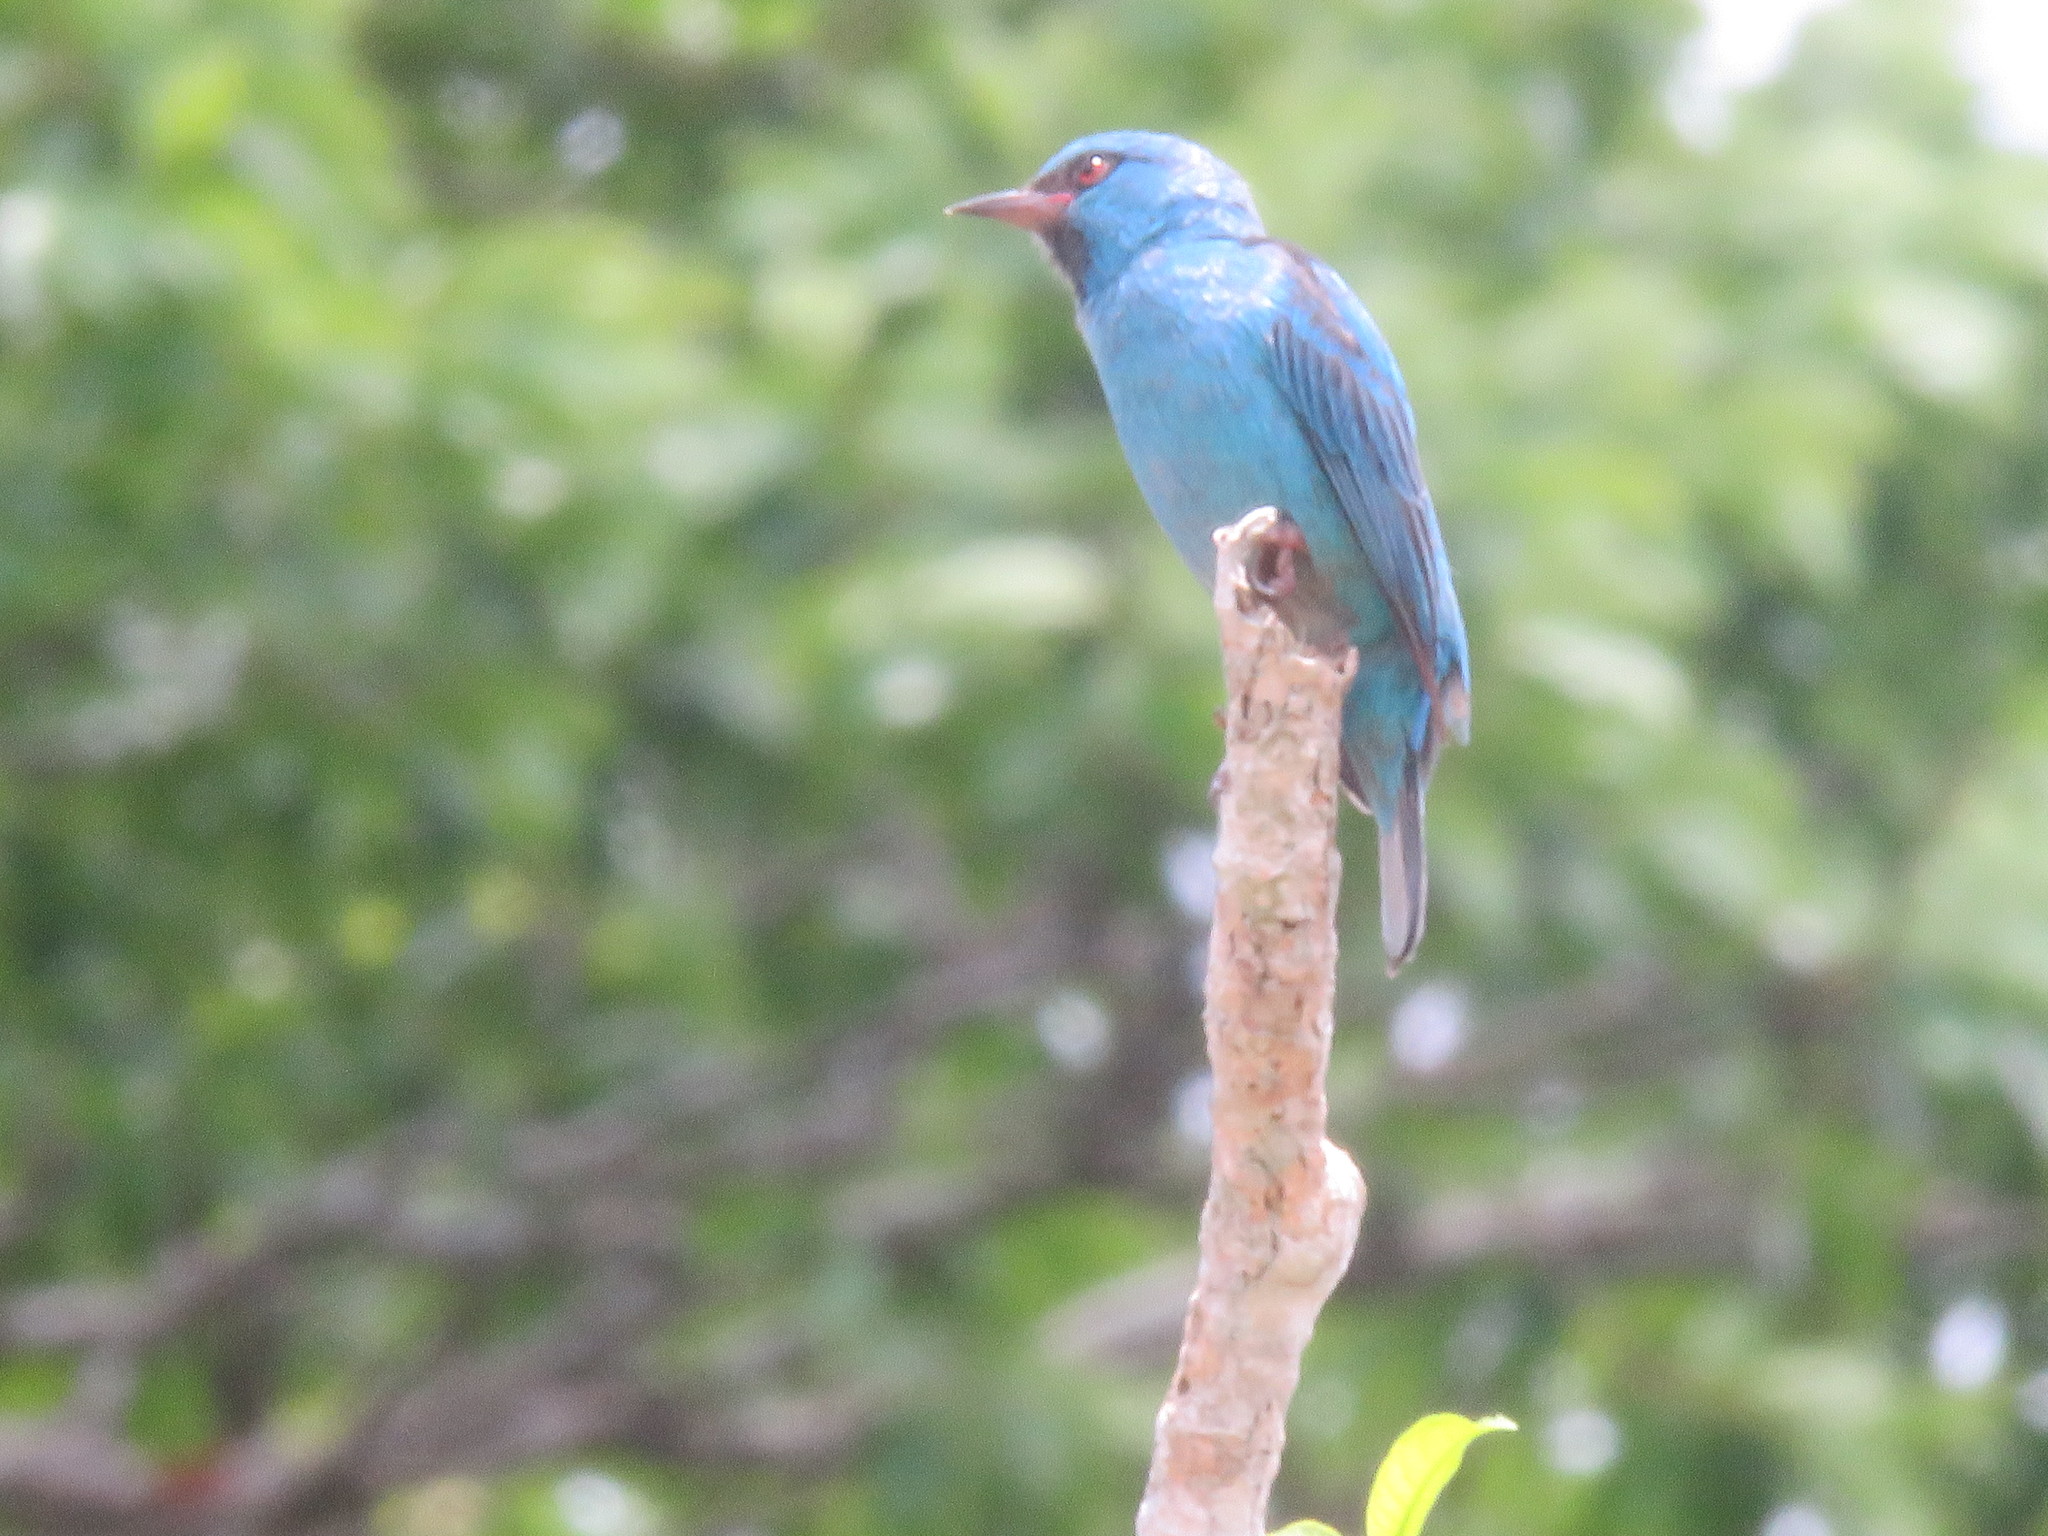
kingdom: Animalia
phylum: Chordata
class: Aves
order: Passeriformes
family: Thraupidae
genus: Dacnis
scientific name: Dacnis cayana
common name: Blue dacnis
